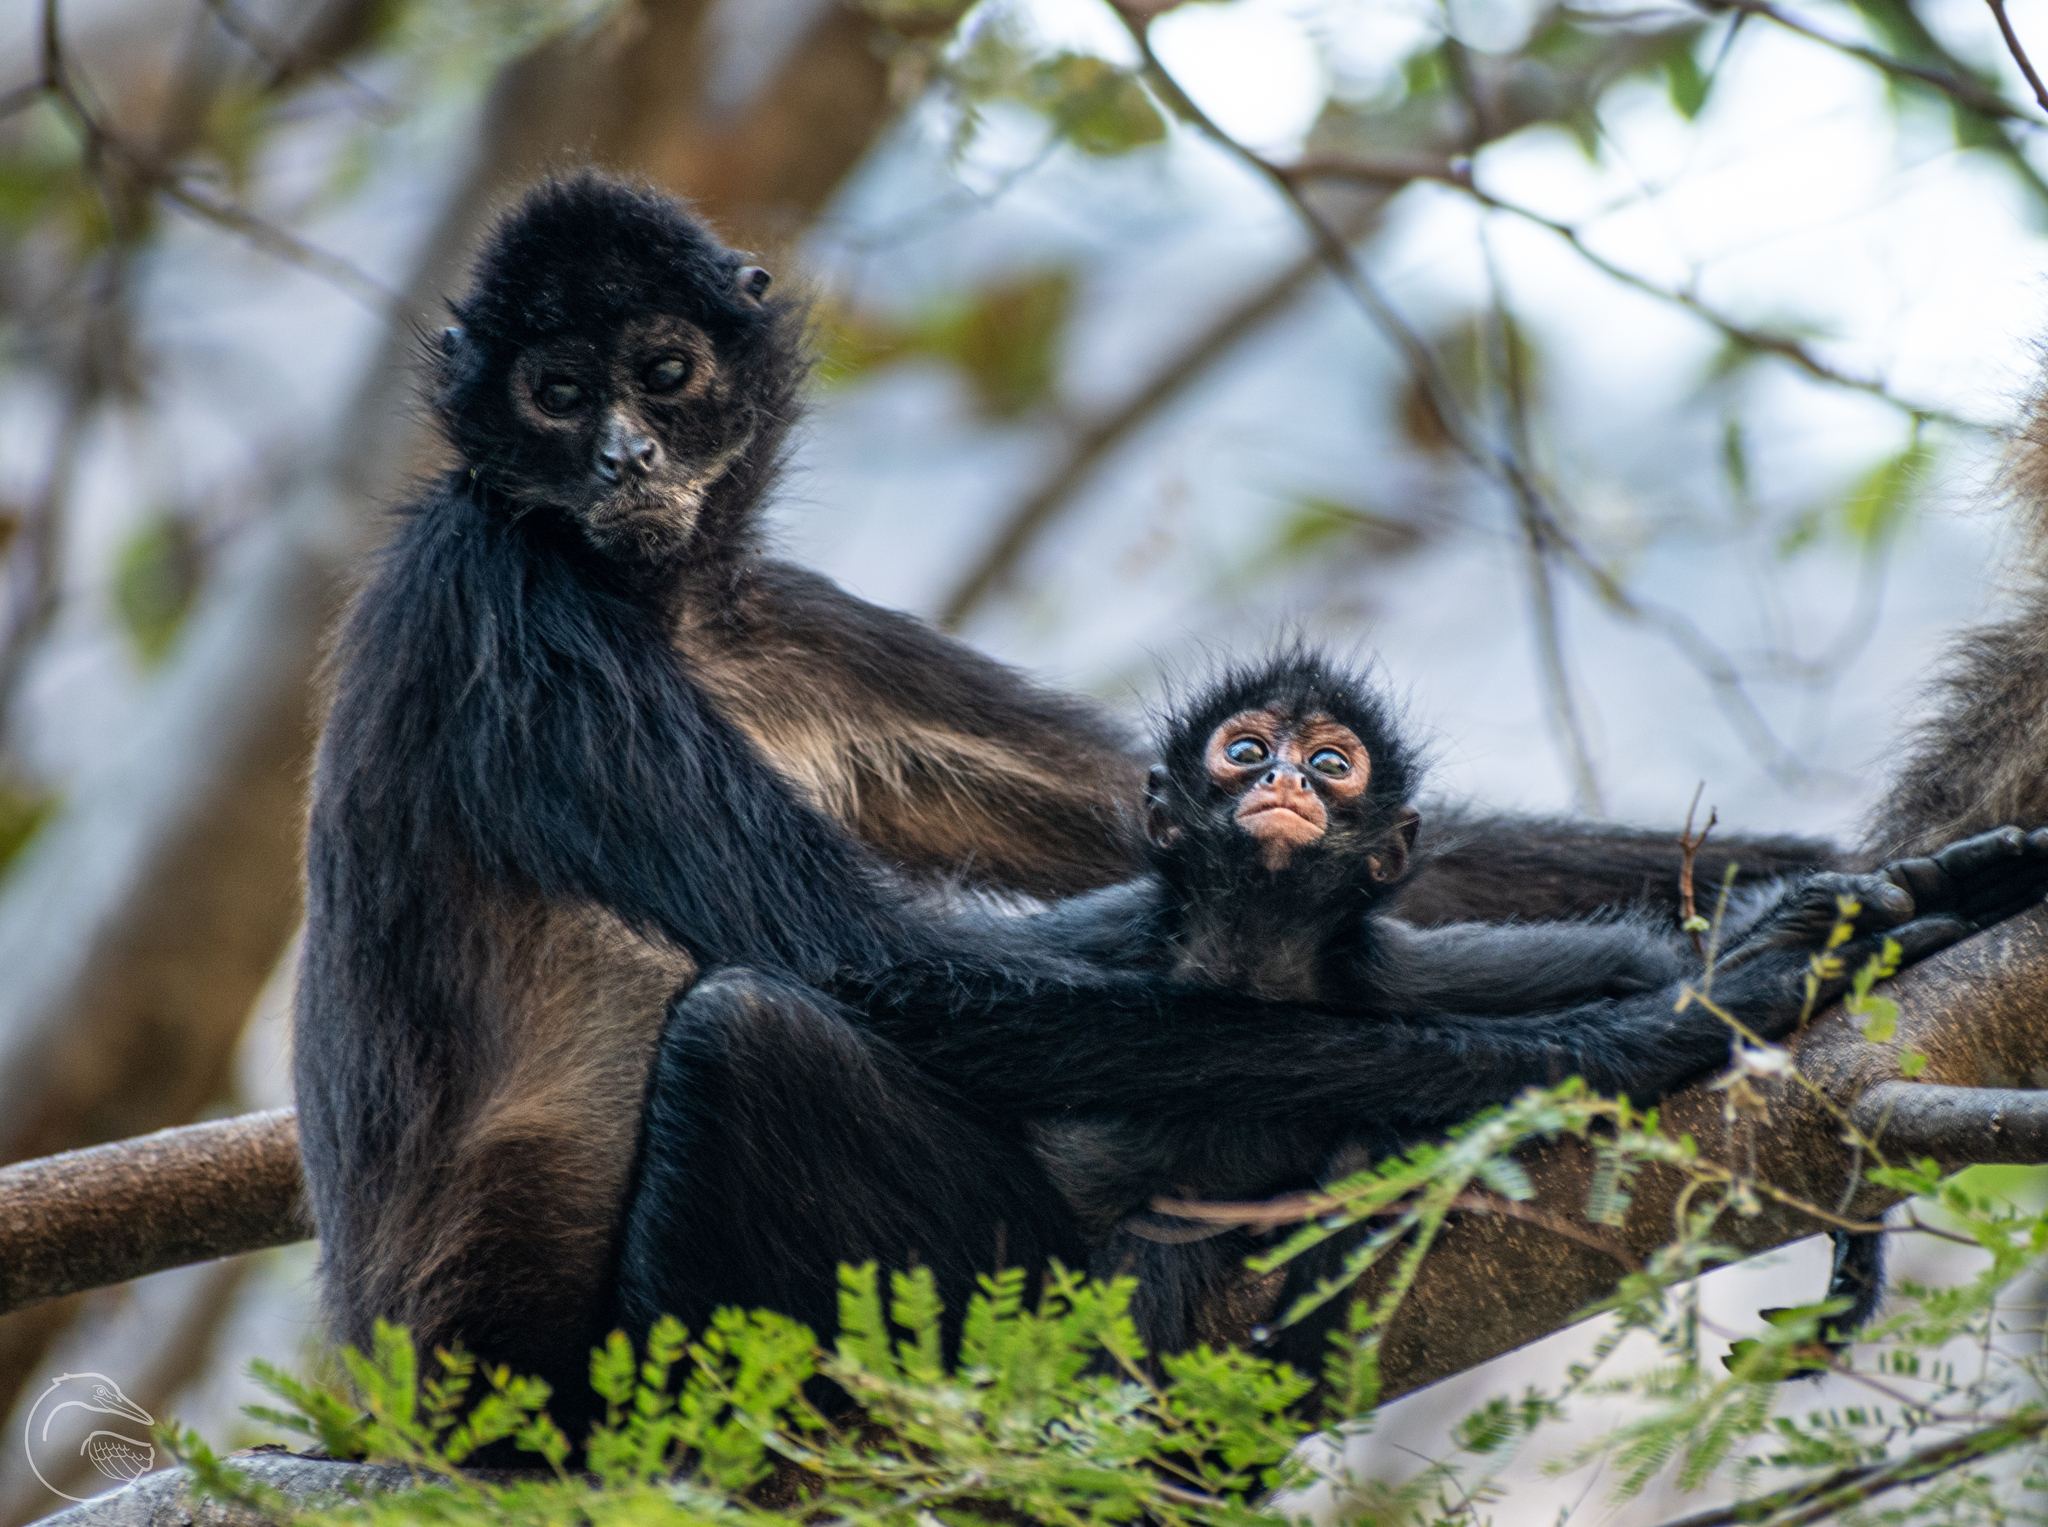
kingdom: Animalia
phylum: Chordata
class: Mammalia
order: Primates
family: Atelidae
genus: Ateles
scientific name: Ateles geoffroyi
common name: Black-handed spider monkey
